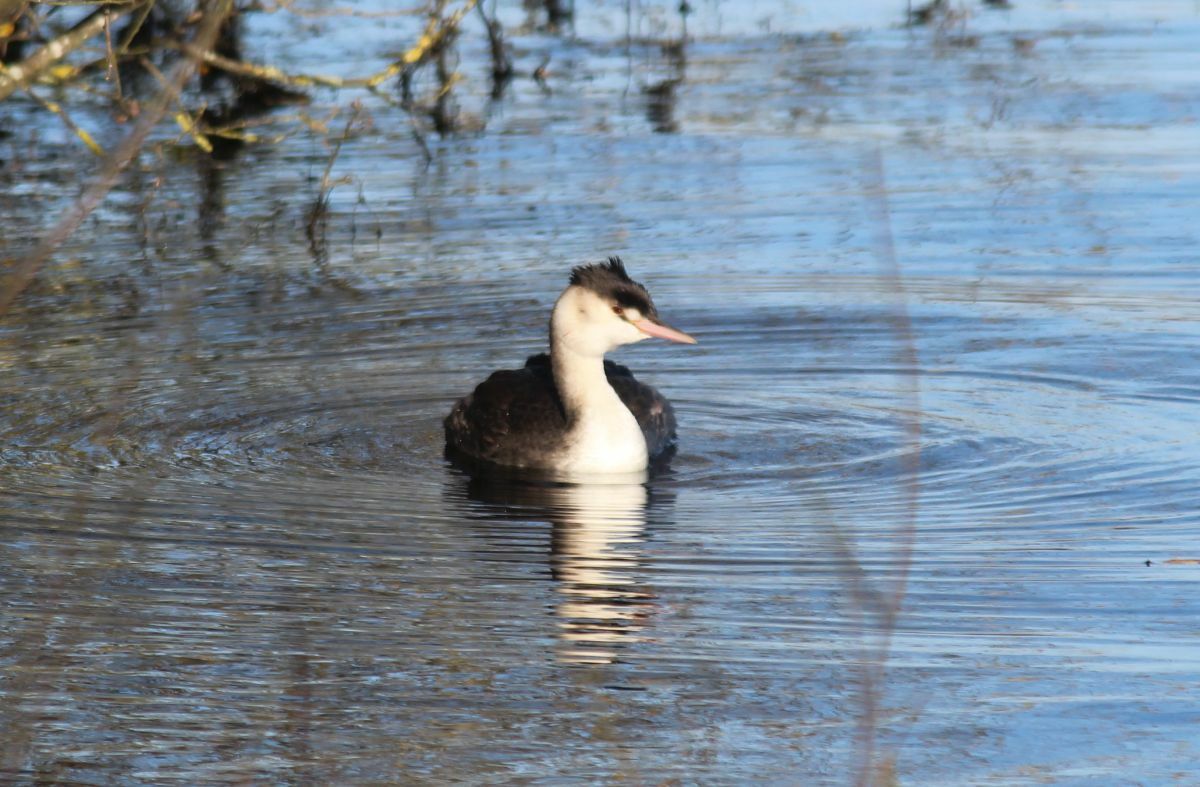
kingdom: Animalia
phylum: Chordata
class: Aves
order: Podicipediformes
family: Podicipedidae
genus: Podiceps
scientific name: Podiceps cristatus
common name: Great crested grebe
